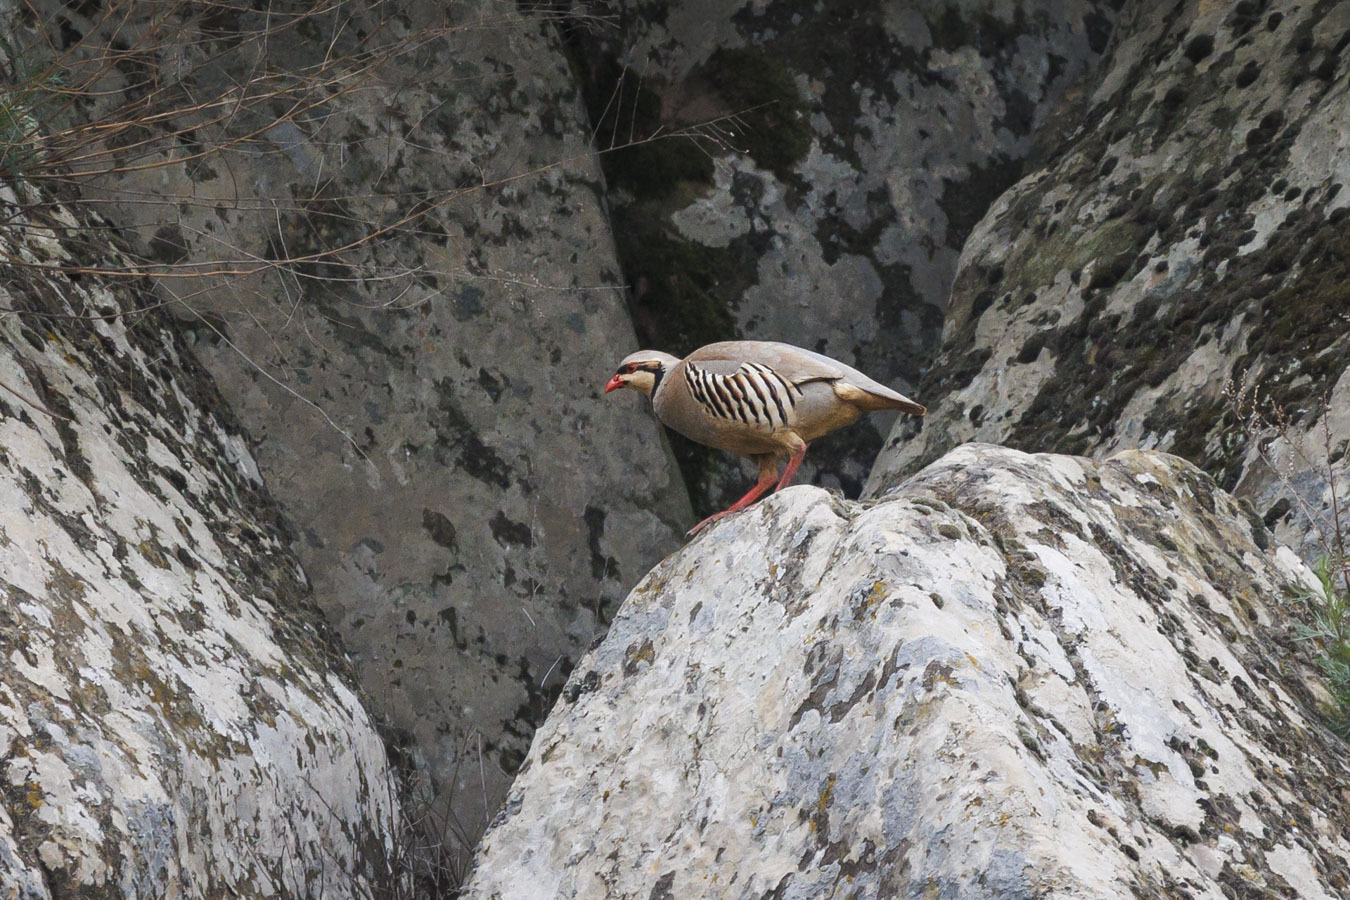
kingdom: Animalia
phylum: Chordata
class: Aves
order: Galliformes
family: Phasianidae
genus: Alectoris
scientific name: Alectoris chukar
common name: Chukar
